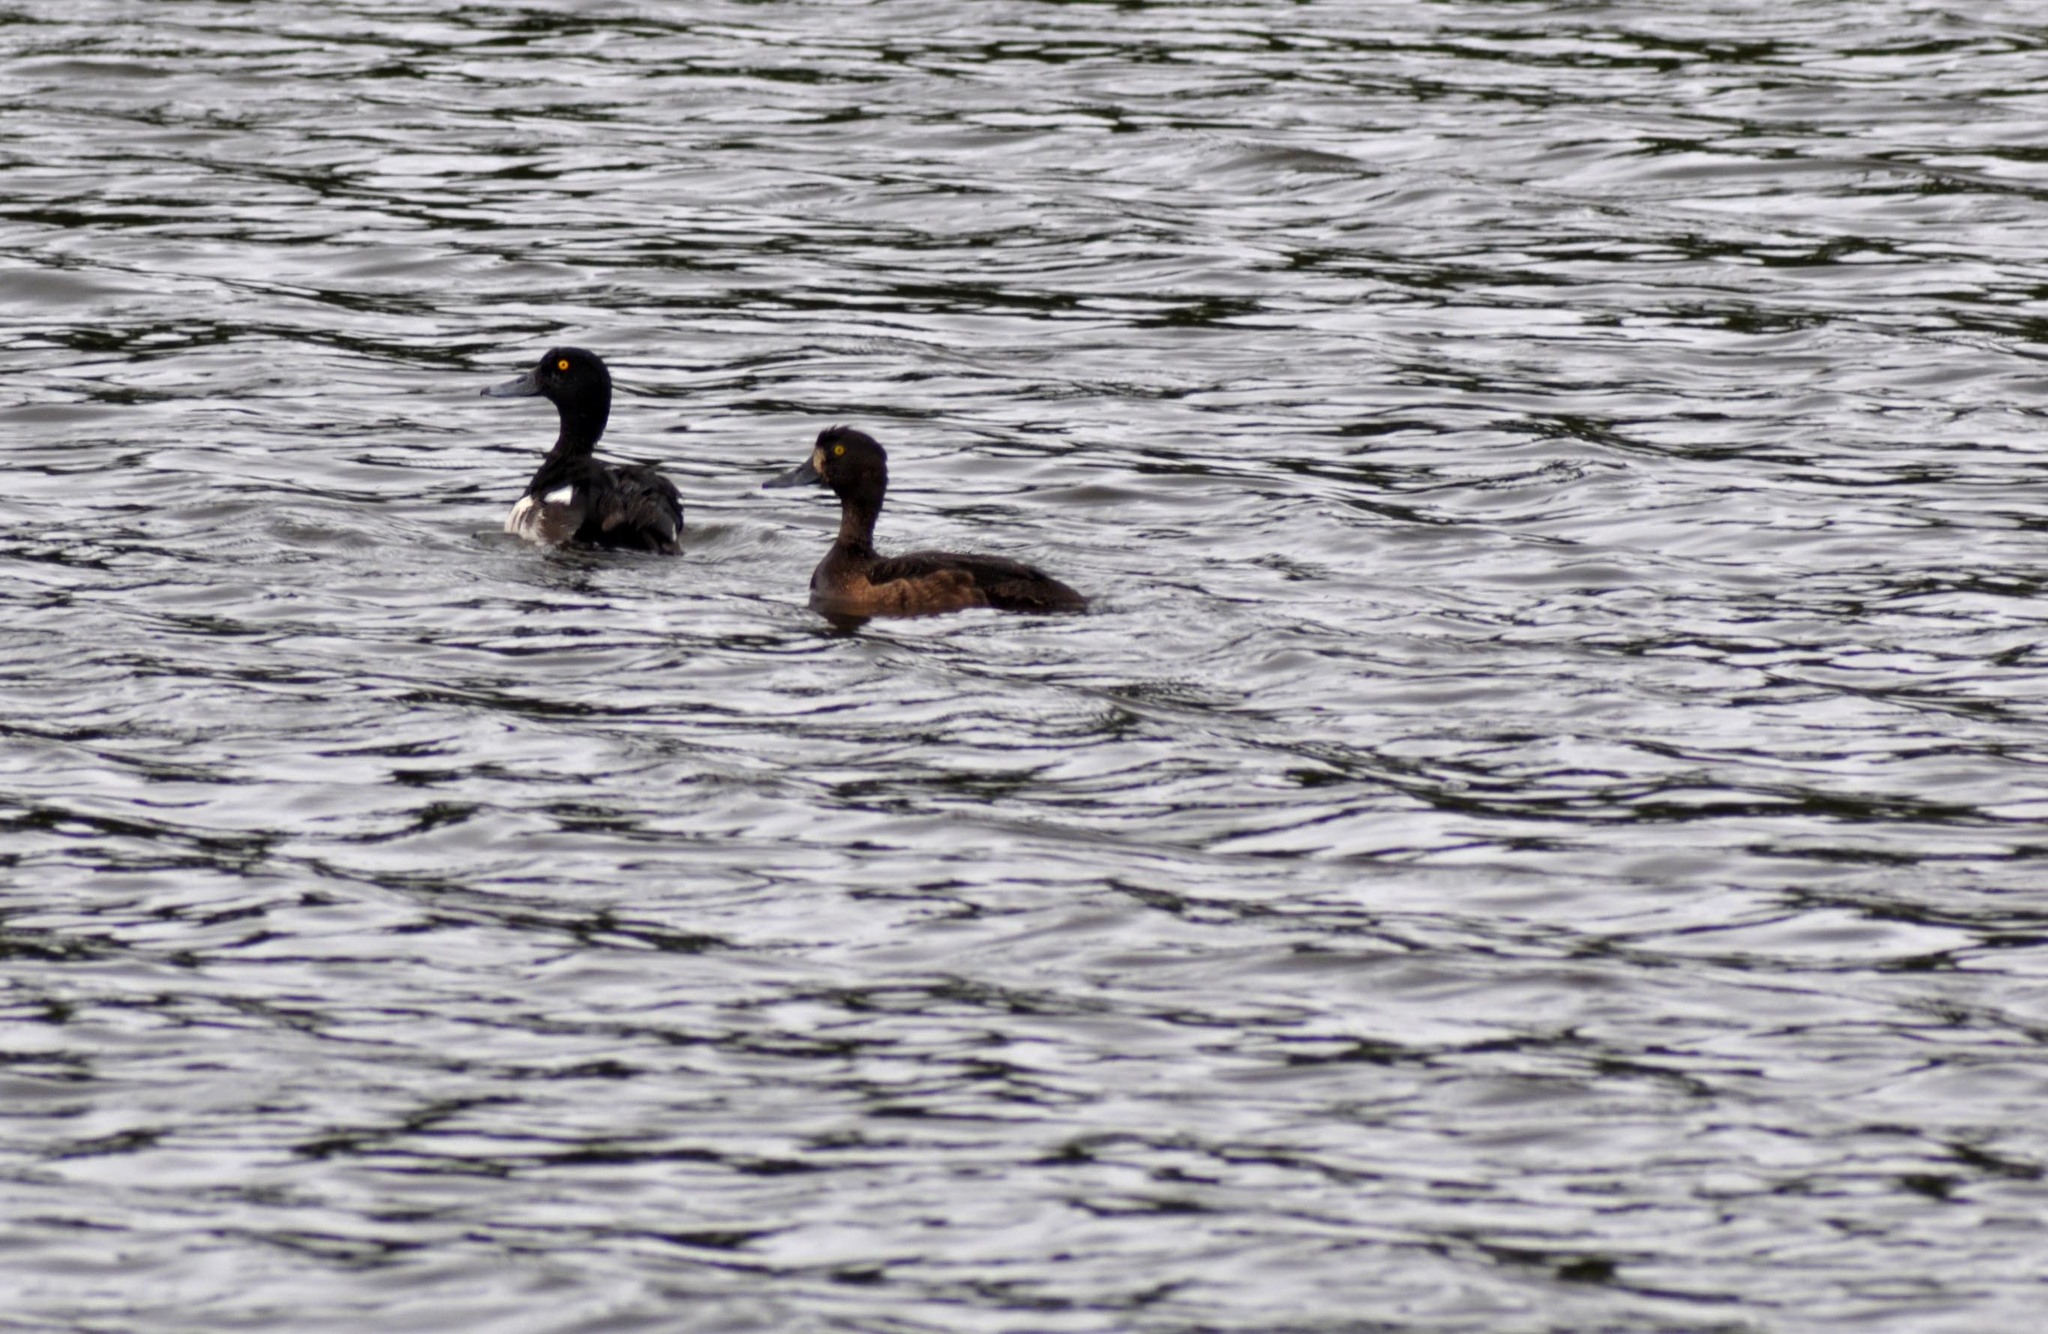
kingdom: Animalia
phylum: Chordata
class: Aves
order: Anseriformes
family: Anatidae
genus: Aythya
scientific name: Aythya fuligula
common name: Tufted duck
